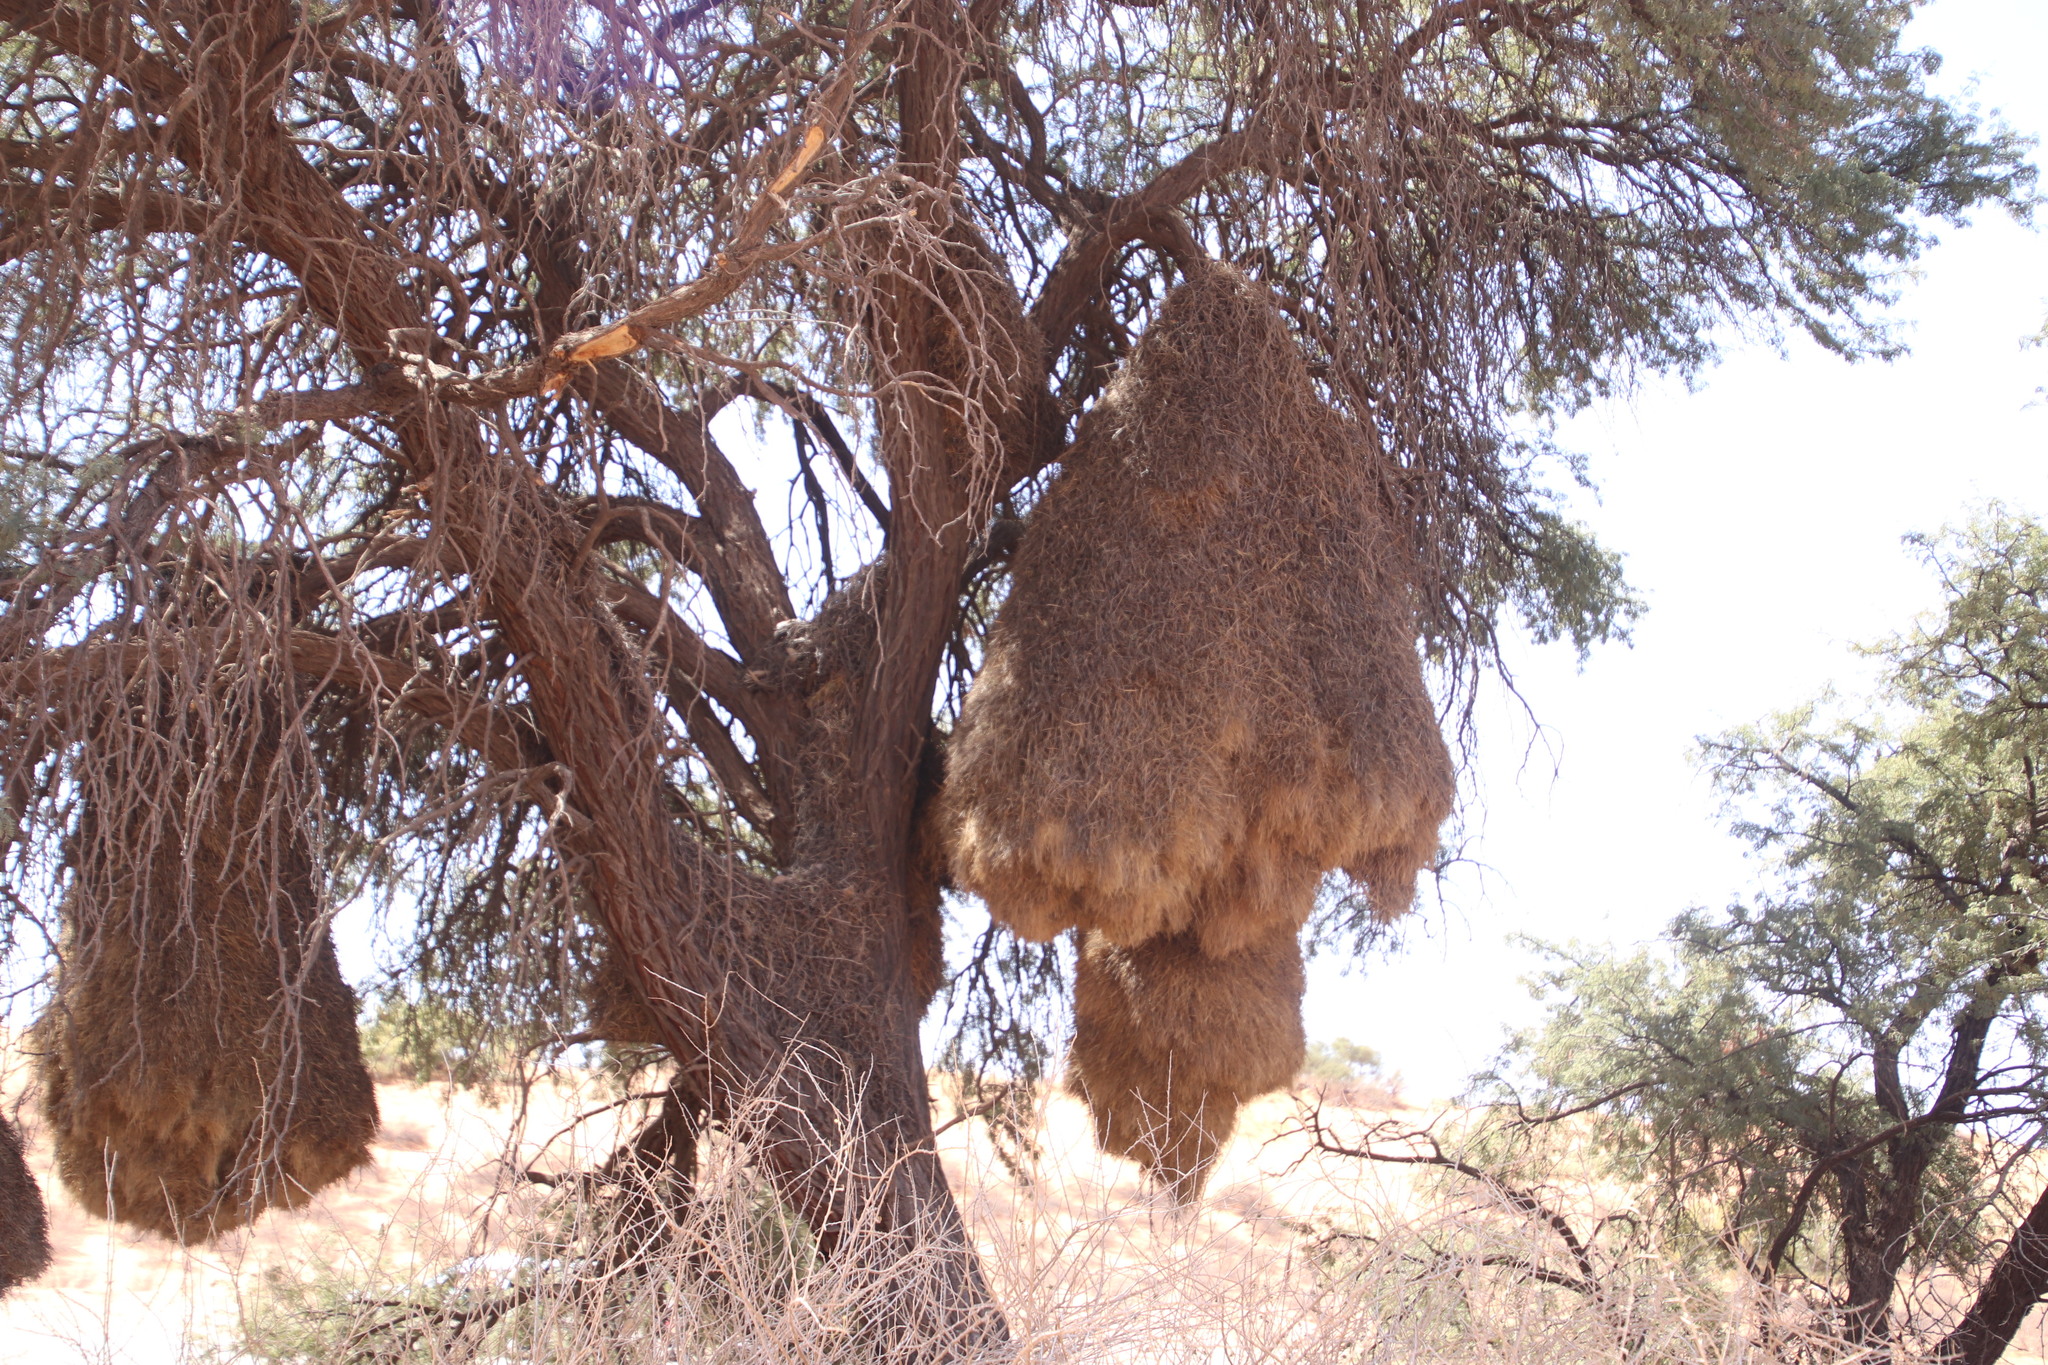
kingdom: Animalia
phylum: Chordata
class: Aves
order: Passeriformes
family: Passeridae
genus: Philetairus
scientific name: Philetairus socius
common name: Sociable weaver
